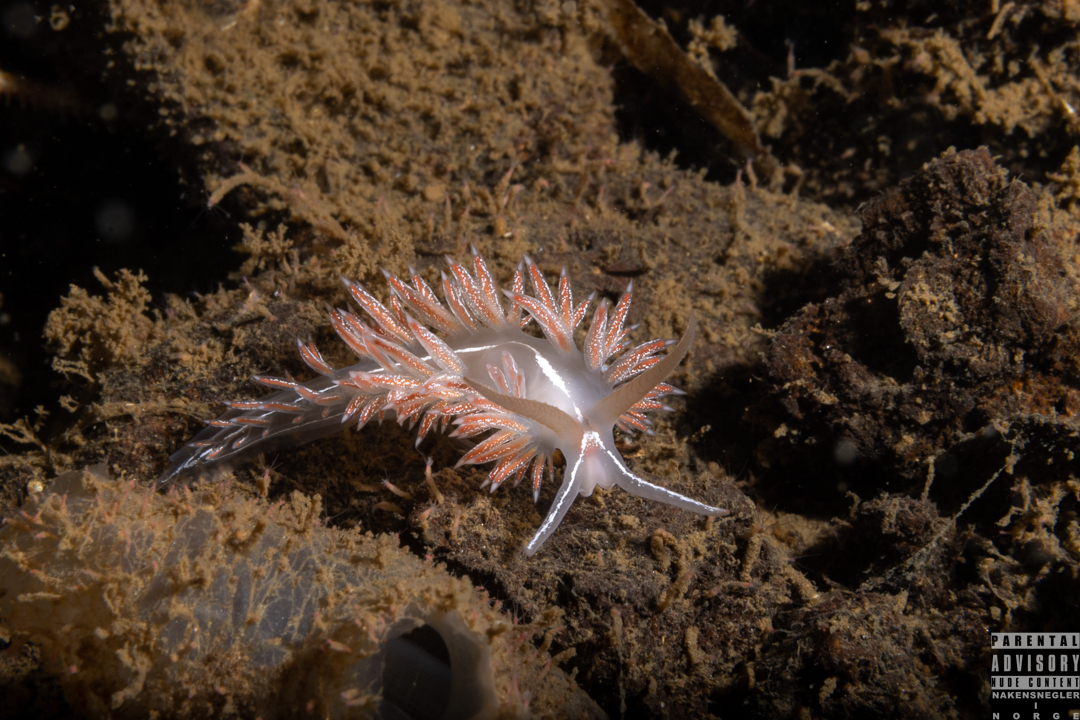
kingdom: Animalia
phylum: Mollusca
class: Gastropoda
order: Nudibranchia
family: Coryphellidae
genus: Coryphella
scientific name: Coryphella chriskaugei
